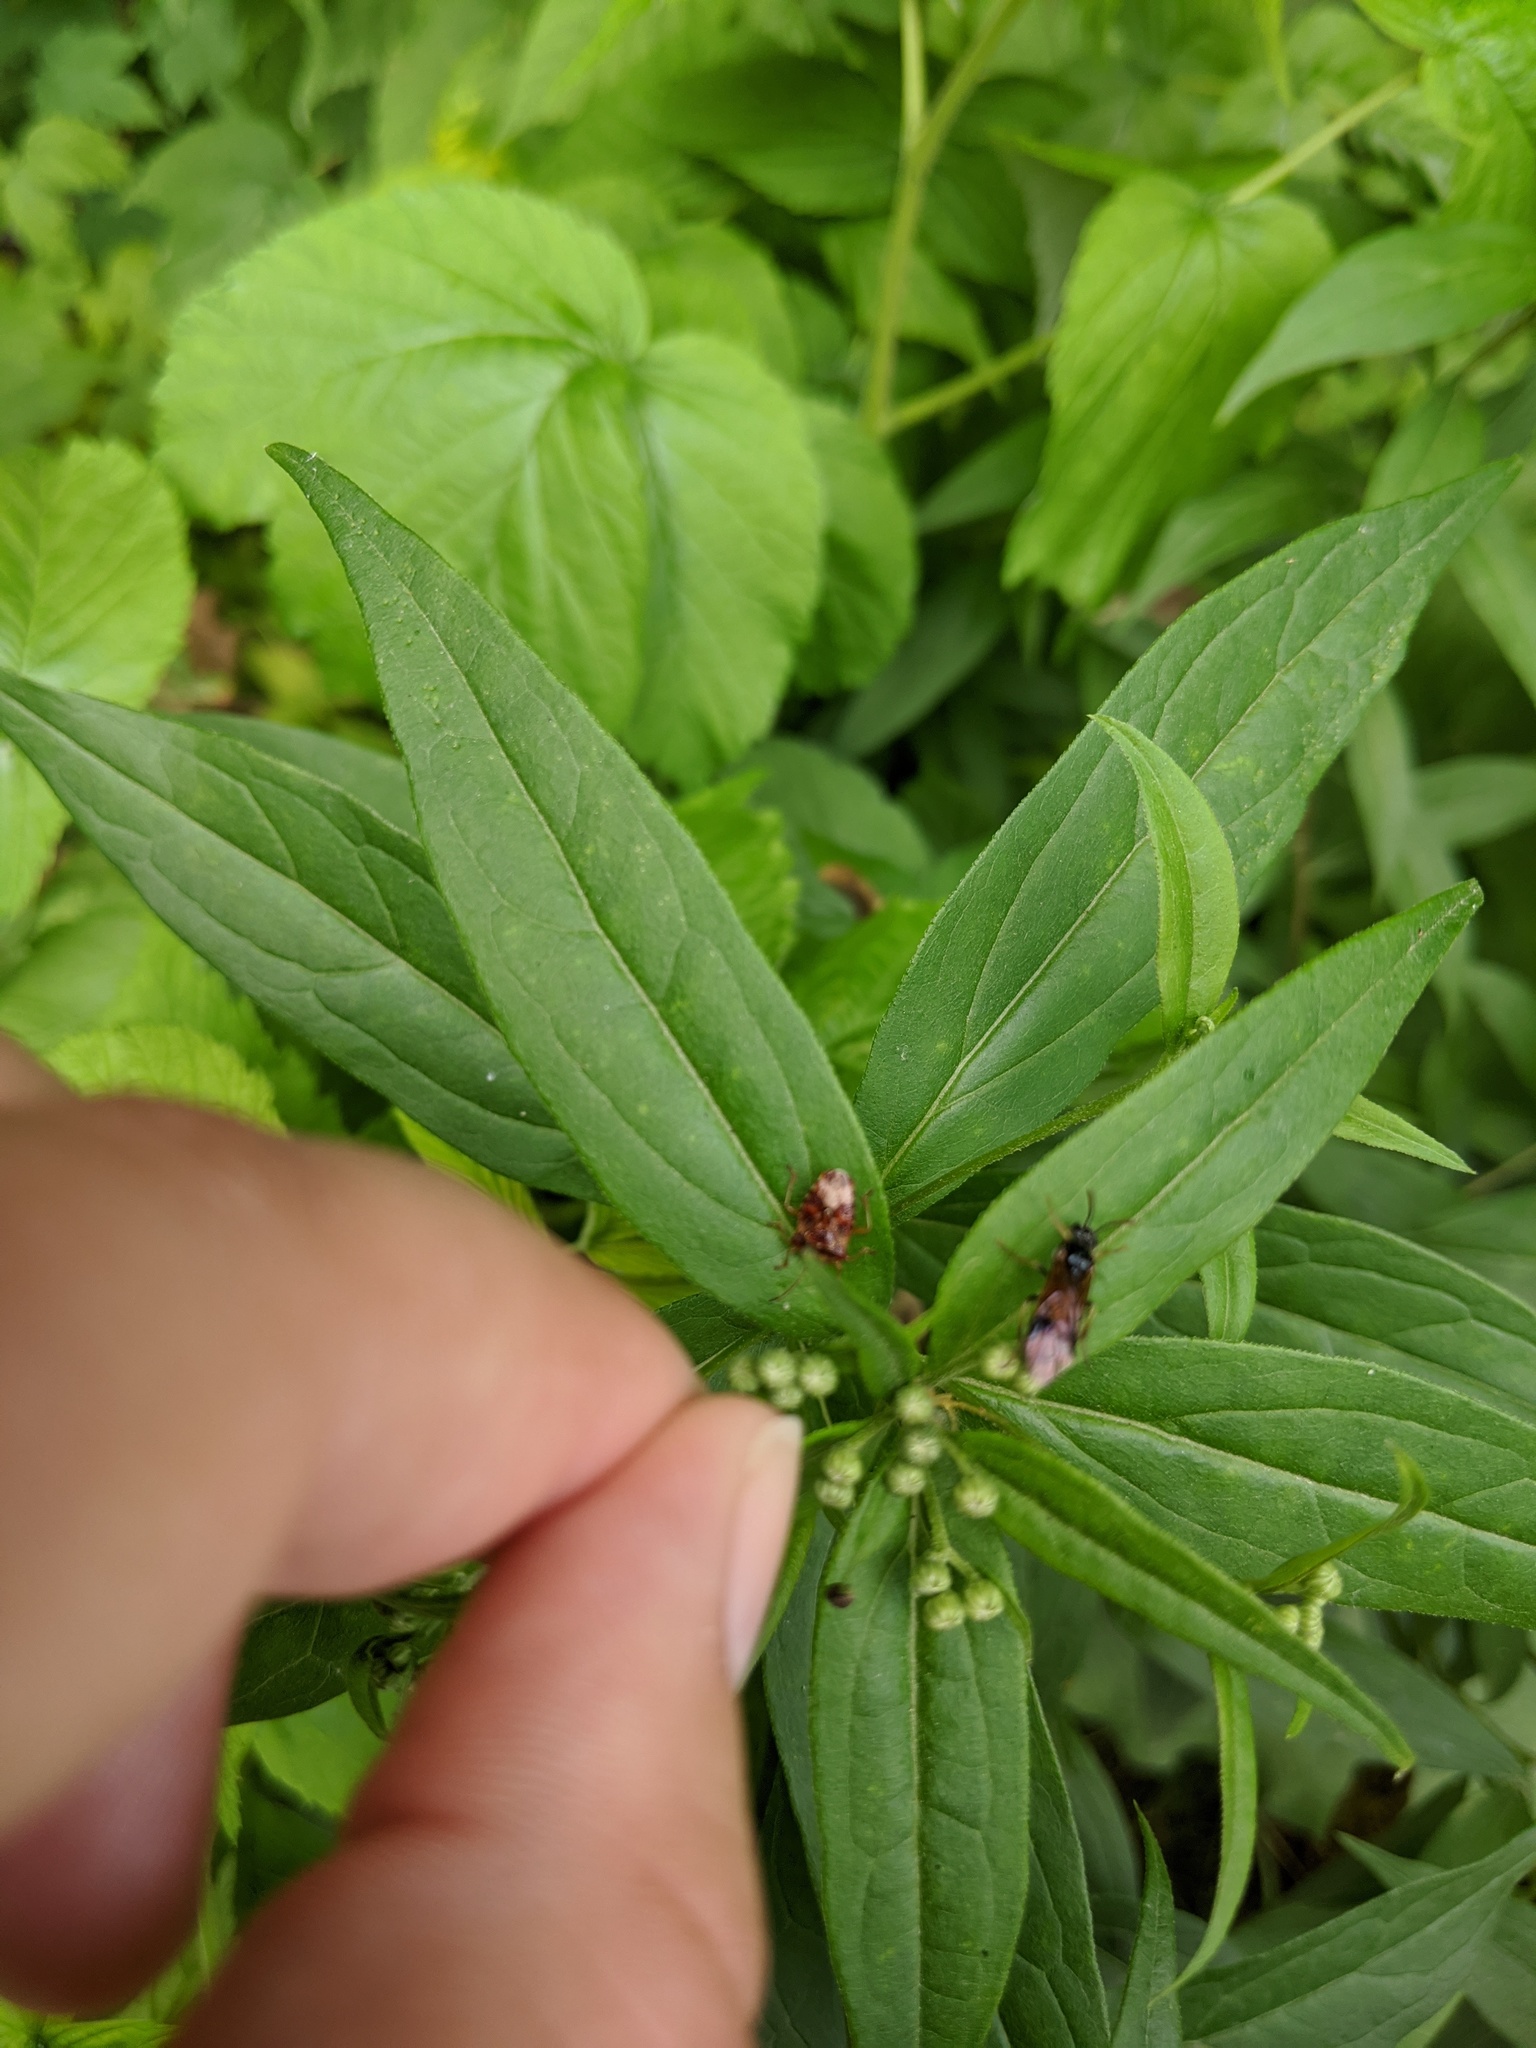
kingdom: Plantae
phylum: Tracheophyta
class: Magnoliopsida
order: Asterales
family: Asteraceae
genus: Doellingeria
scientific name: Doellingeria umbellata
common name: Flat-top white aster
